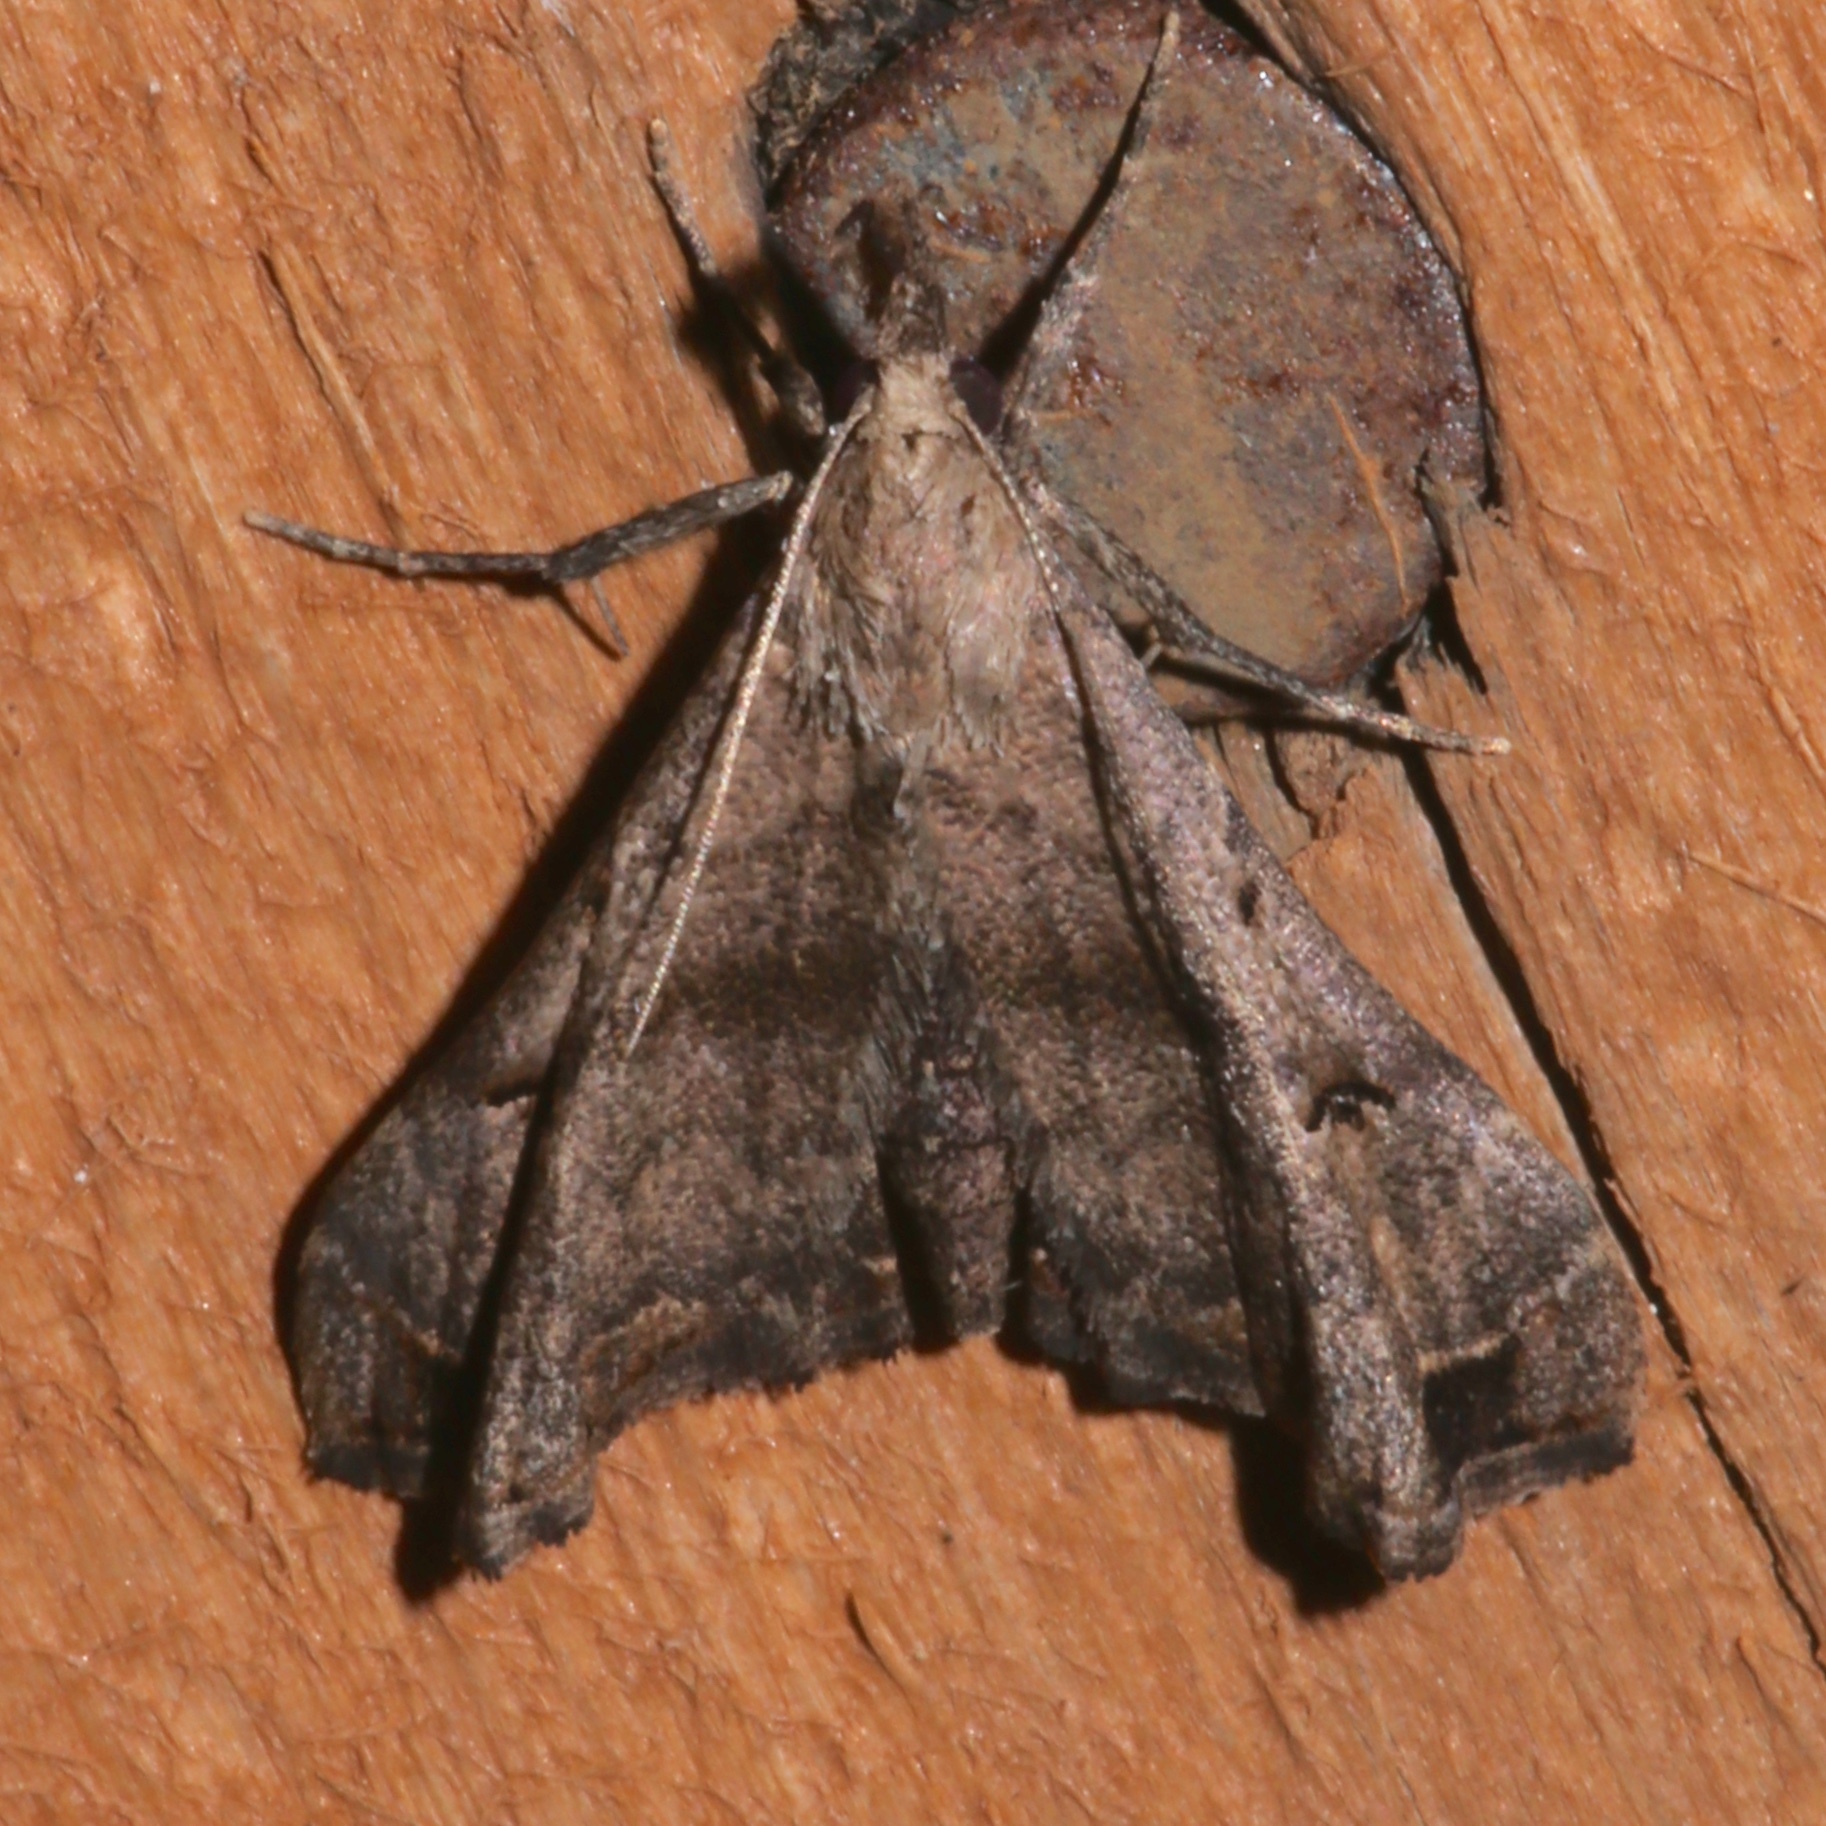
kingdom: Animalia
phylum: Arthropoda
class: Insecta
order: Lepidoptera
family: Erebidae
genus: Palthis
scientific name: Palthis asopialis
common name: Faint-spotted palthis moth
